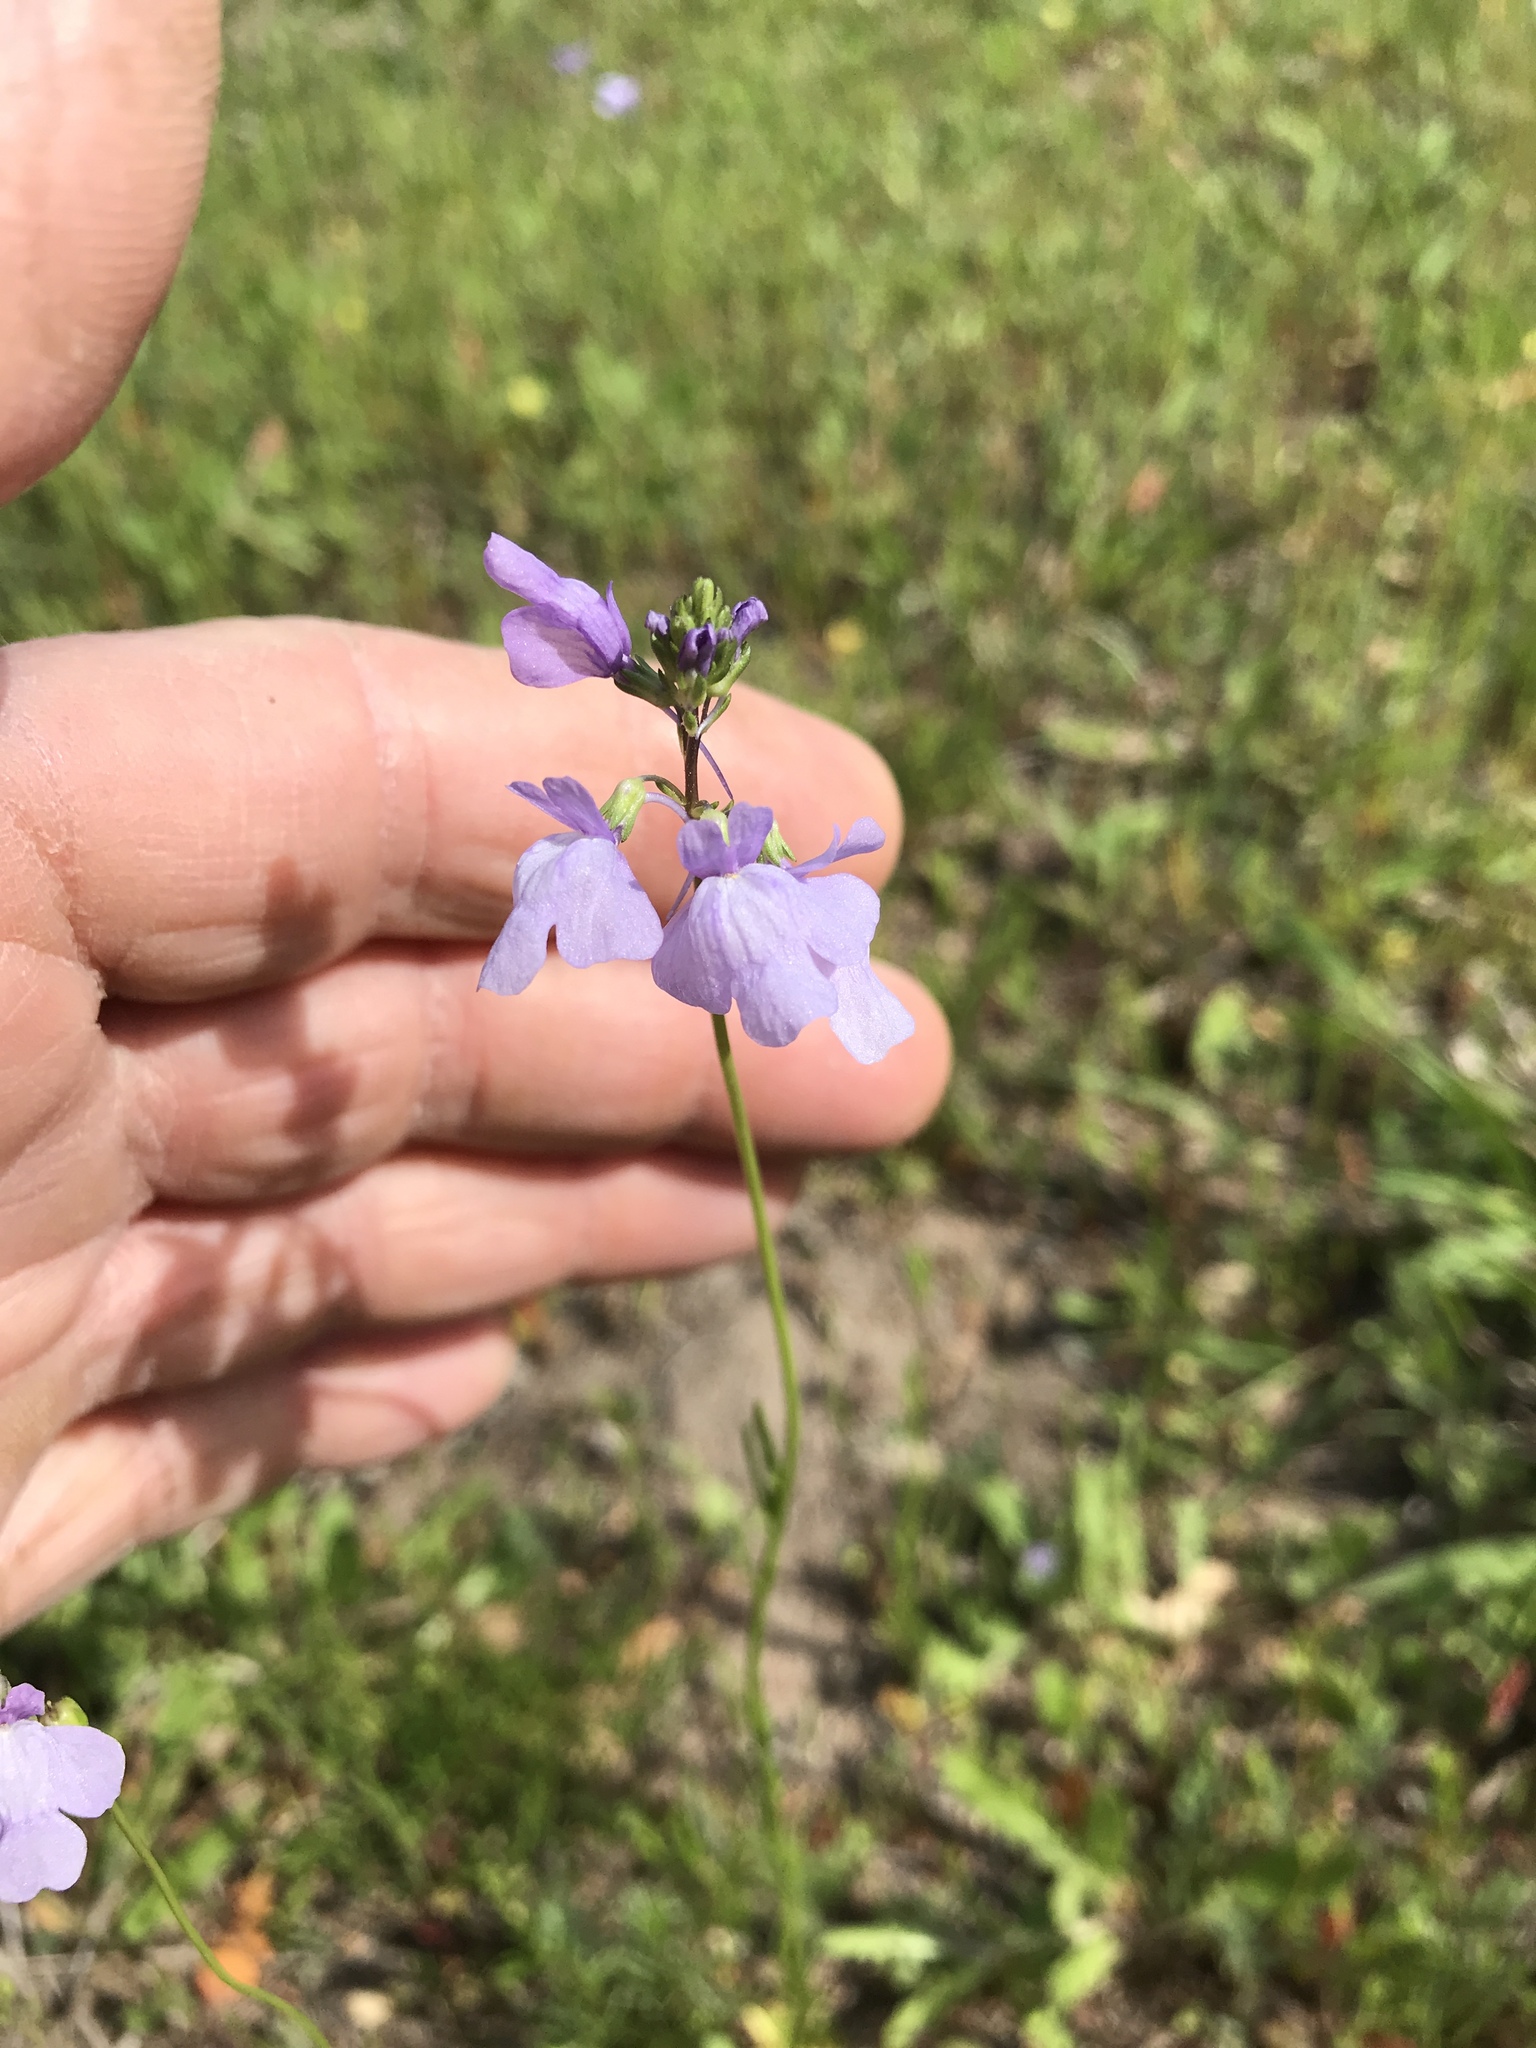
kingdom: Plantae
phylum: Tracheophyta
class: Magnoliopsida
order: Lamiales
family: Plantaginaceae
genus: Nuttallanthus
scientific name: Nuttallanthus texanus
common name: Texas toadflax
